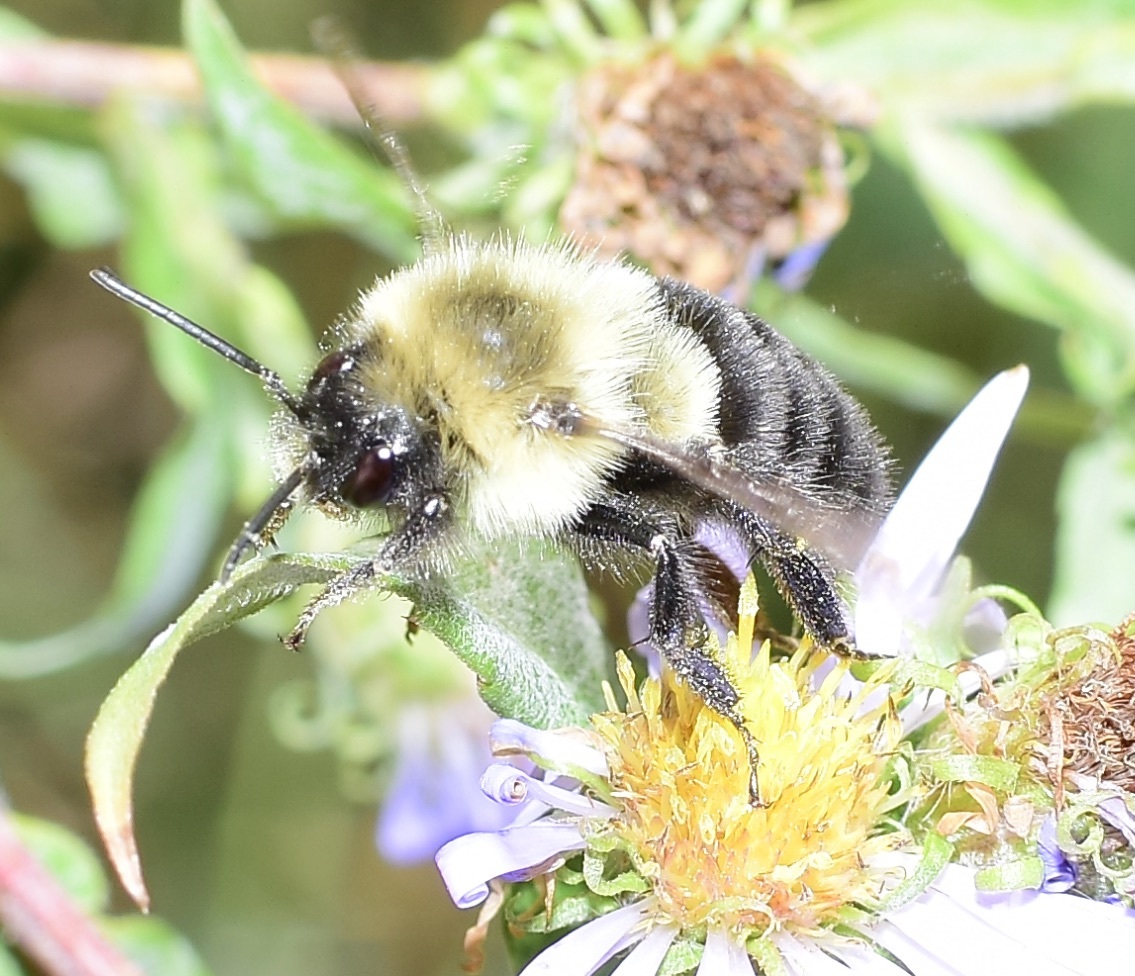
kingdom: Animalia
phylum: Arthropoda
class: Insecta
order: Hymenoptera
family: Apidae
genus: Bombus
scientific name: Bombus impatiens
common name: Common eastern bumble bee
